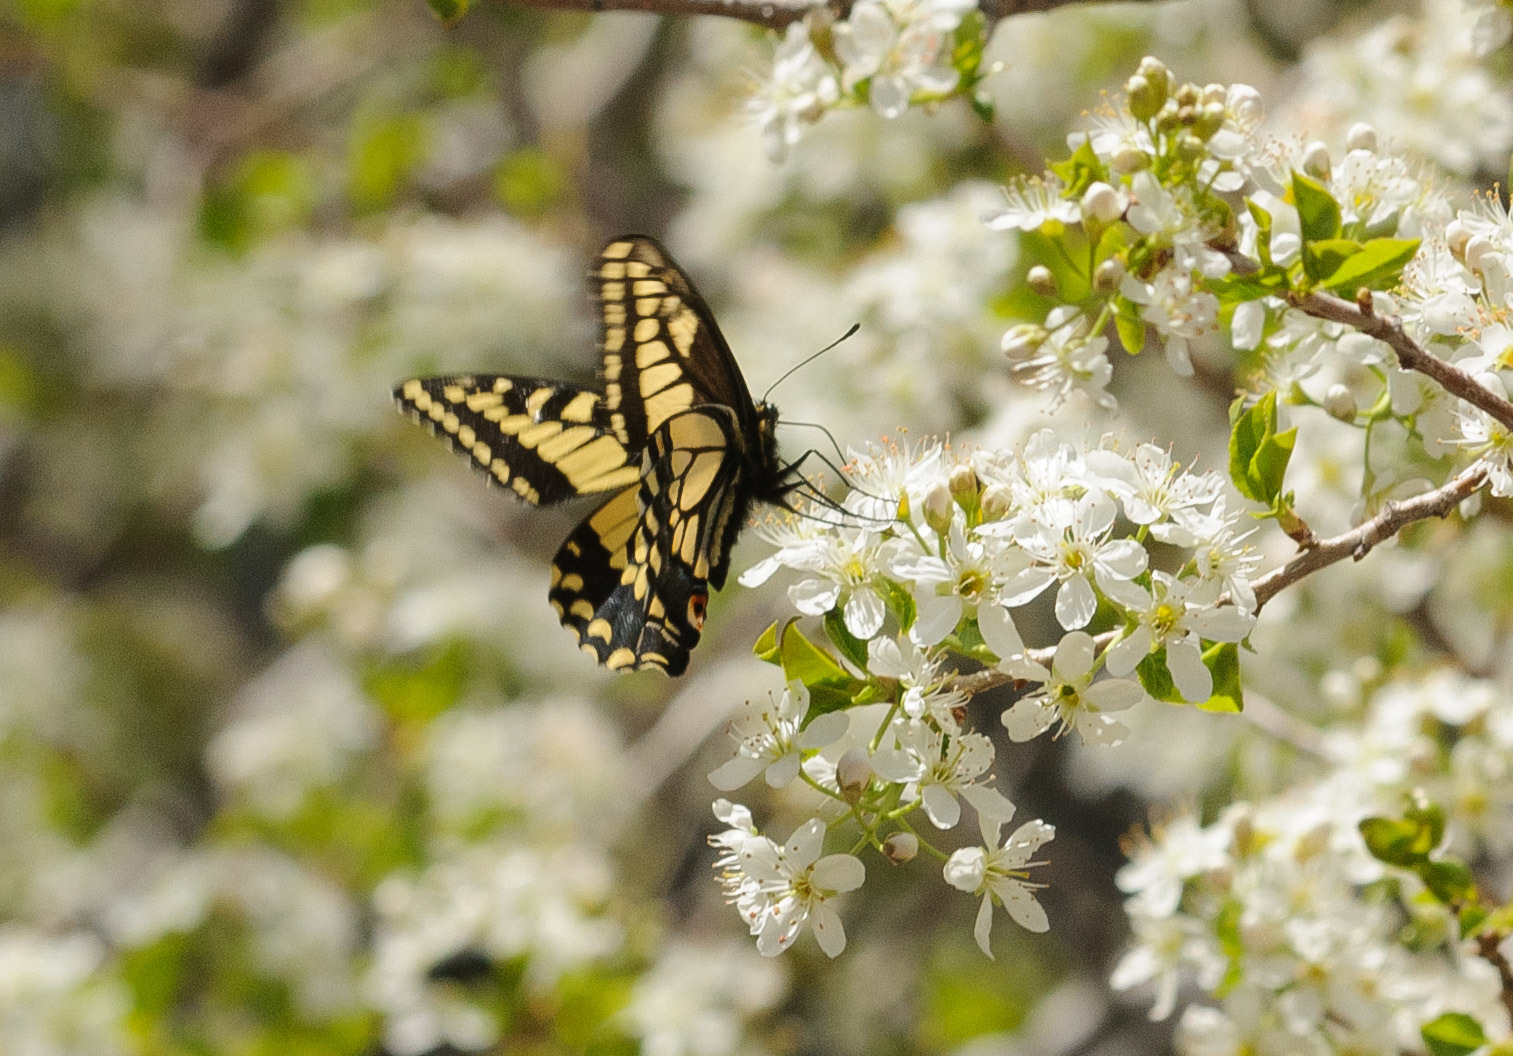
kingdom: Animalia
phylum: Arthropoda
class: Insecta
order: Lepidoptera
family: Papilionidae
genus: Papilio
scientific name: Papilio zelicaon
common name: Anise swallowtail
